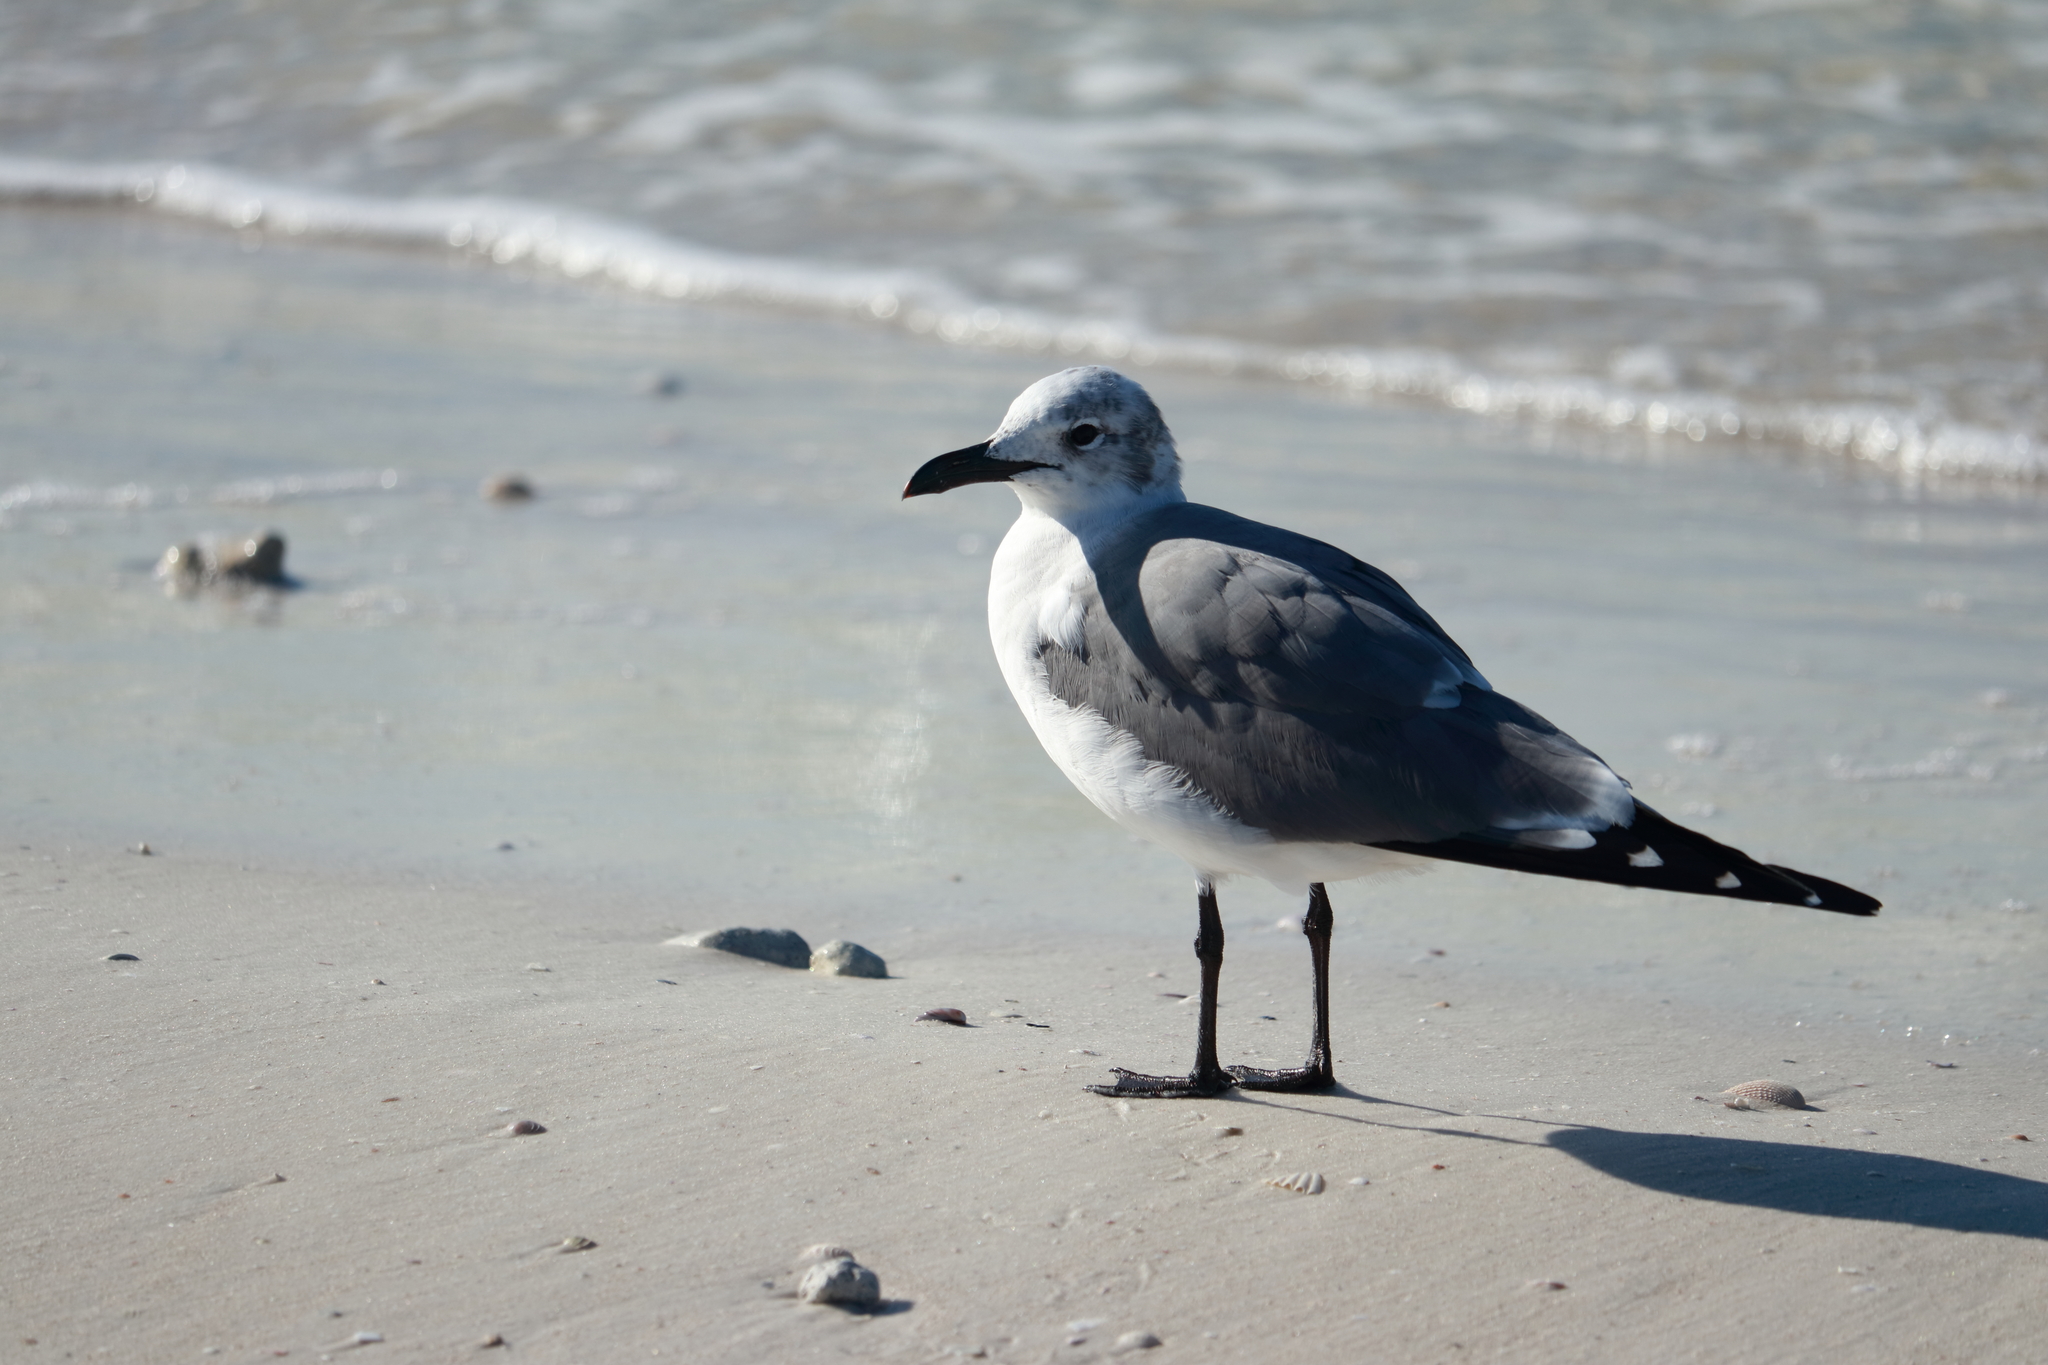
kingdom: Animalia
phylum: Chordata
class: Aves
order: Charadriiformes
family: Laridae
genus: Leucophaeus
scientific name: Leucophaeus atricilla
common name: Laughing gull
